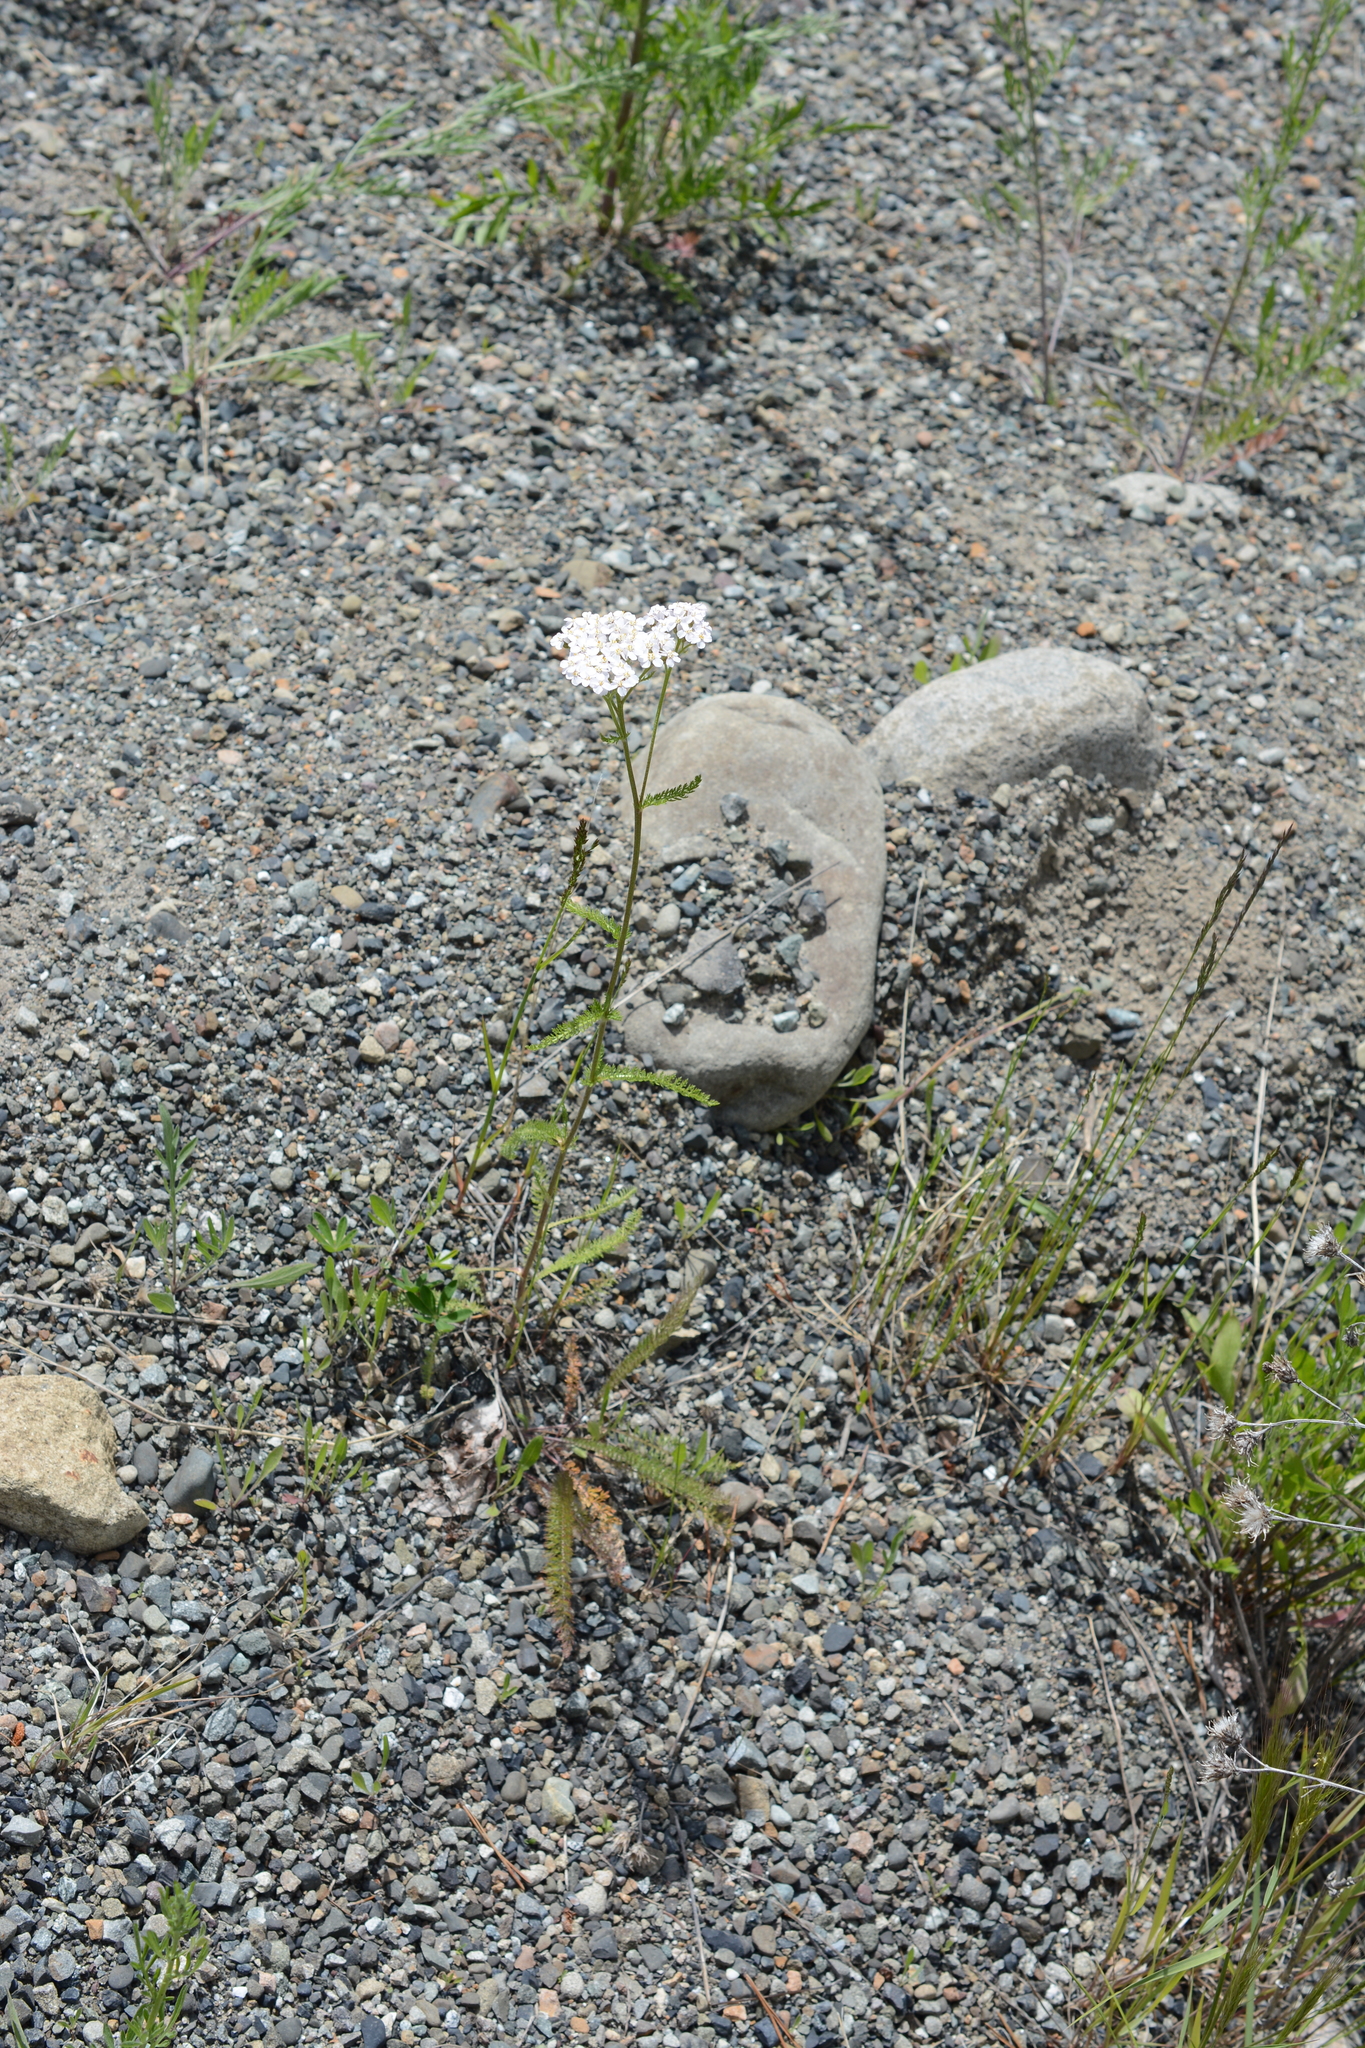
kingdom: Plantae
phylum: Tracheophyta
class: Magnoliopsida
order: Asterales
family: Asteraceae
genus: Achillea
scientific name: Achillea millefolium
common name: Yarrow
